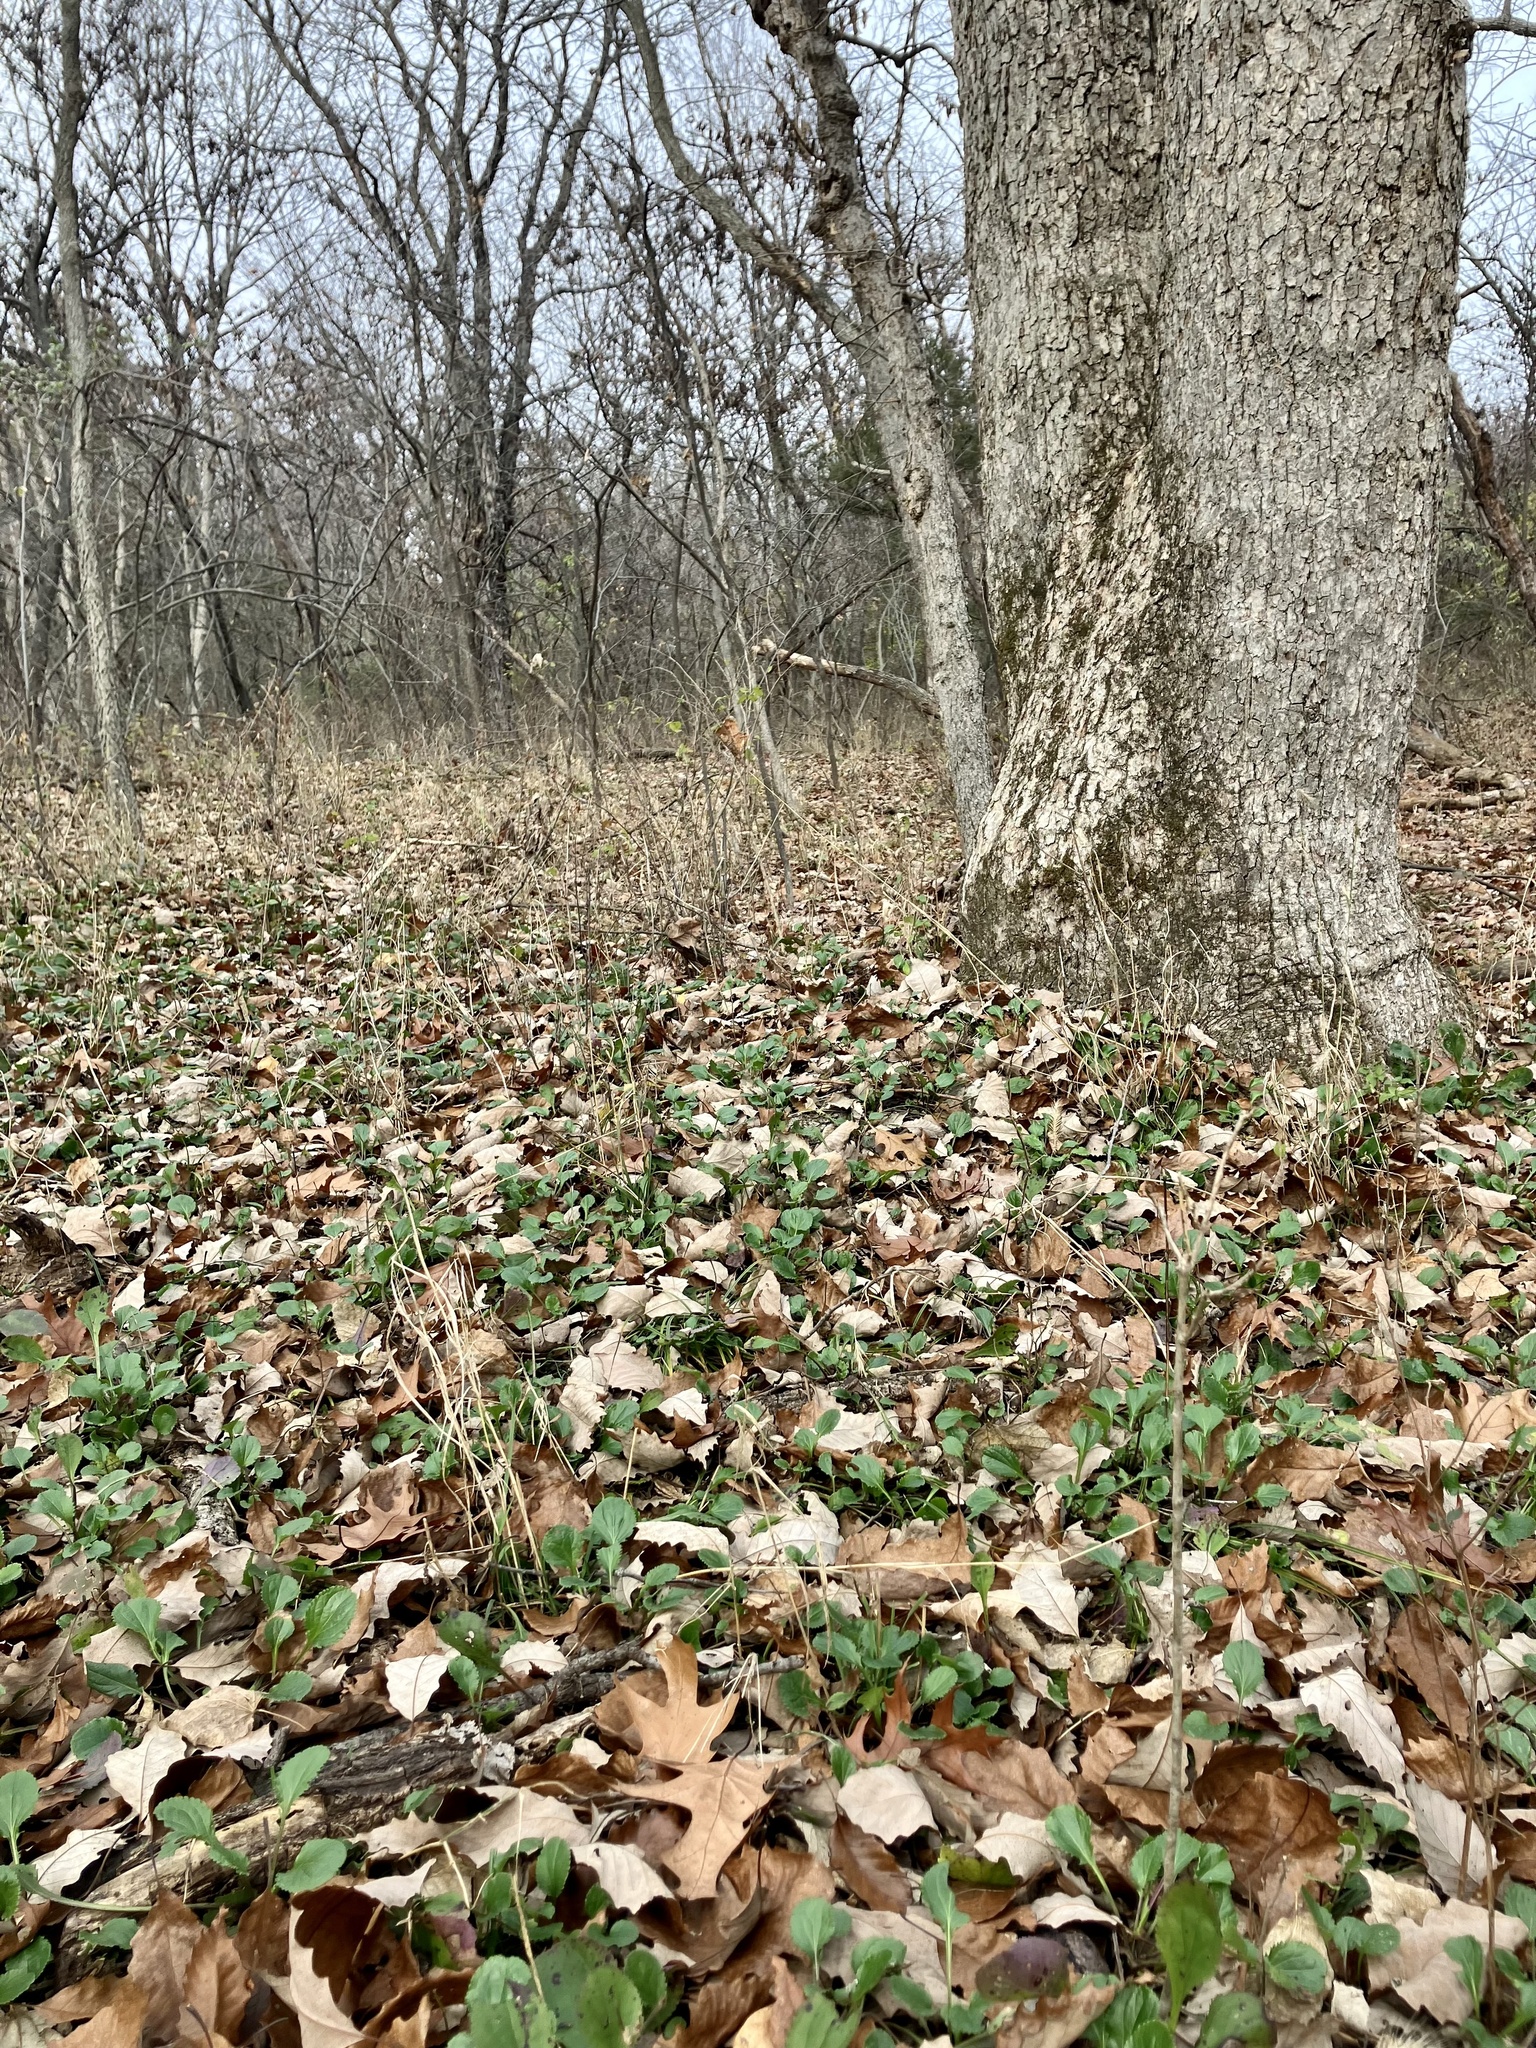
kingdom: Plantae
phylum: Tracheophyta
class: Magnoliopsida
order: Asterales
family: Asteraceae
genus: Packera
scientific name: Packera obovata
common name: Round-leaf ragwort
